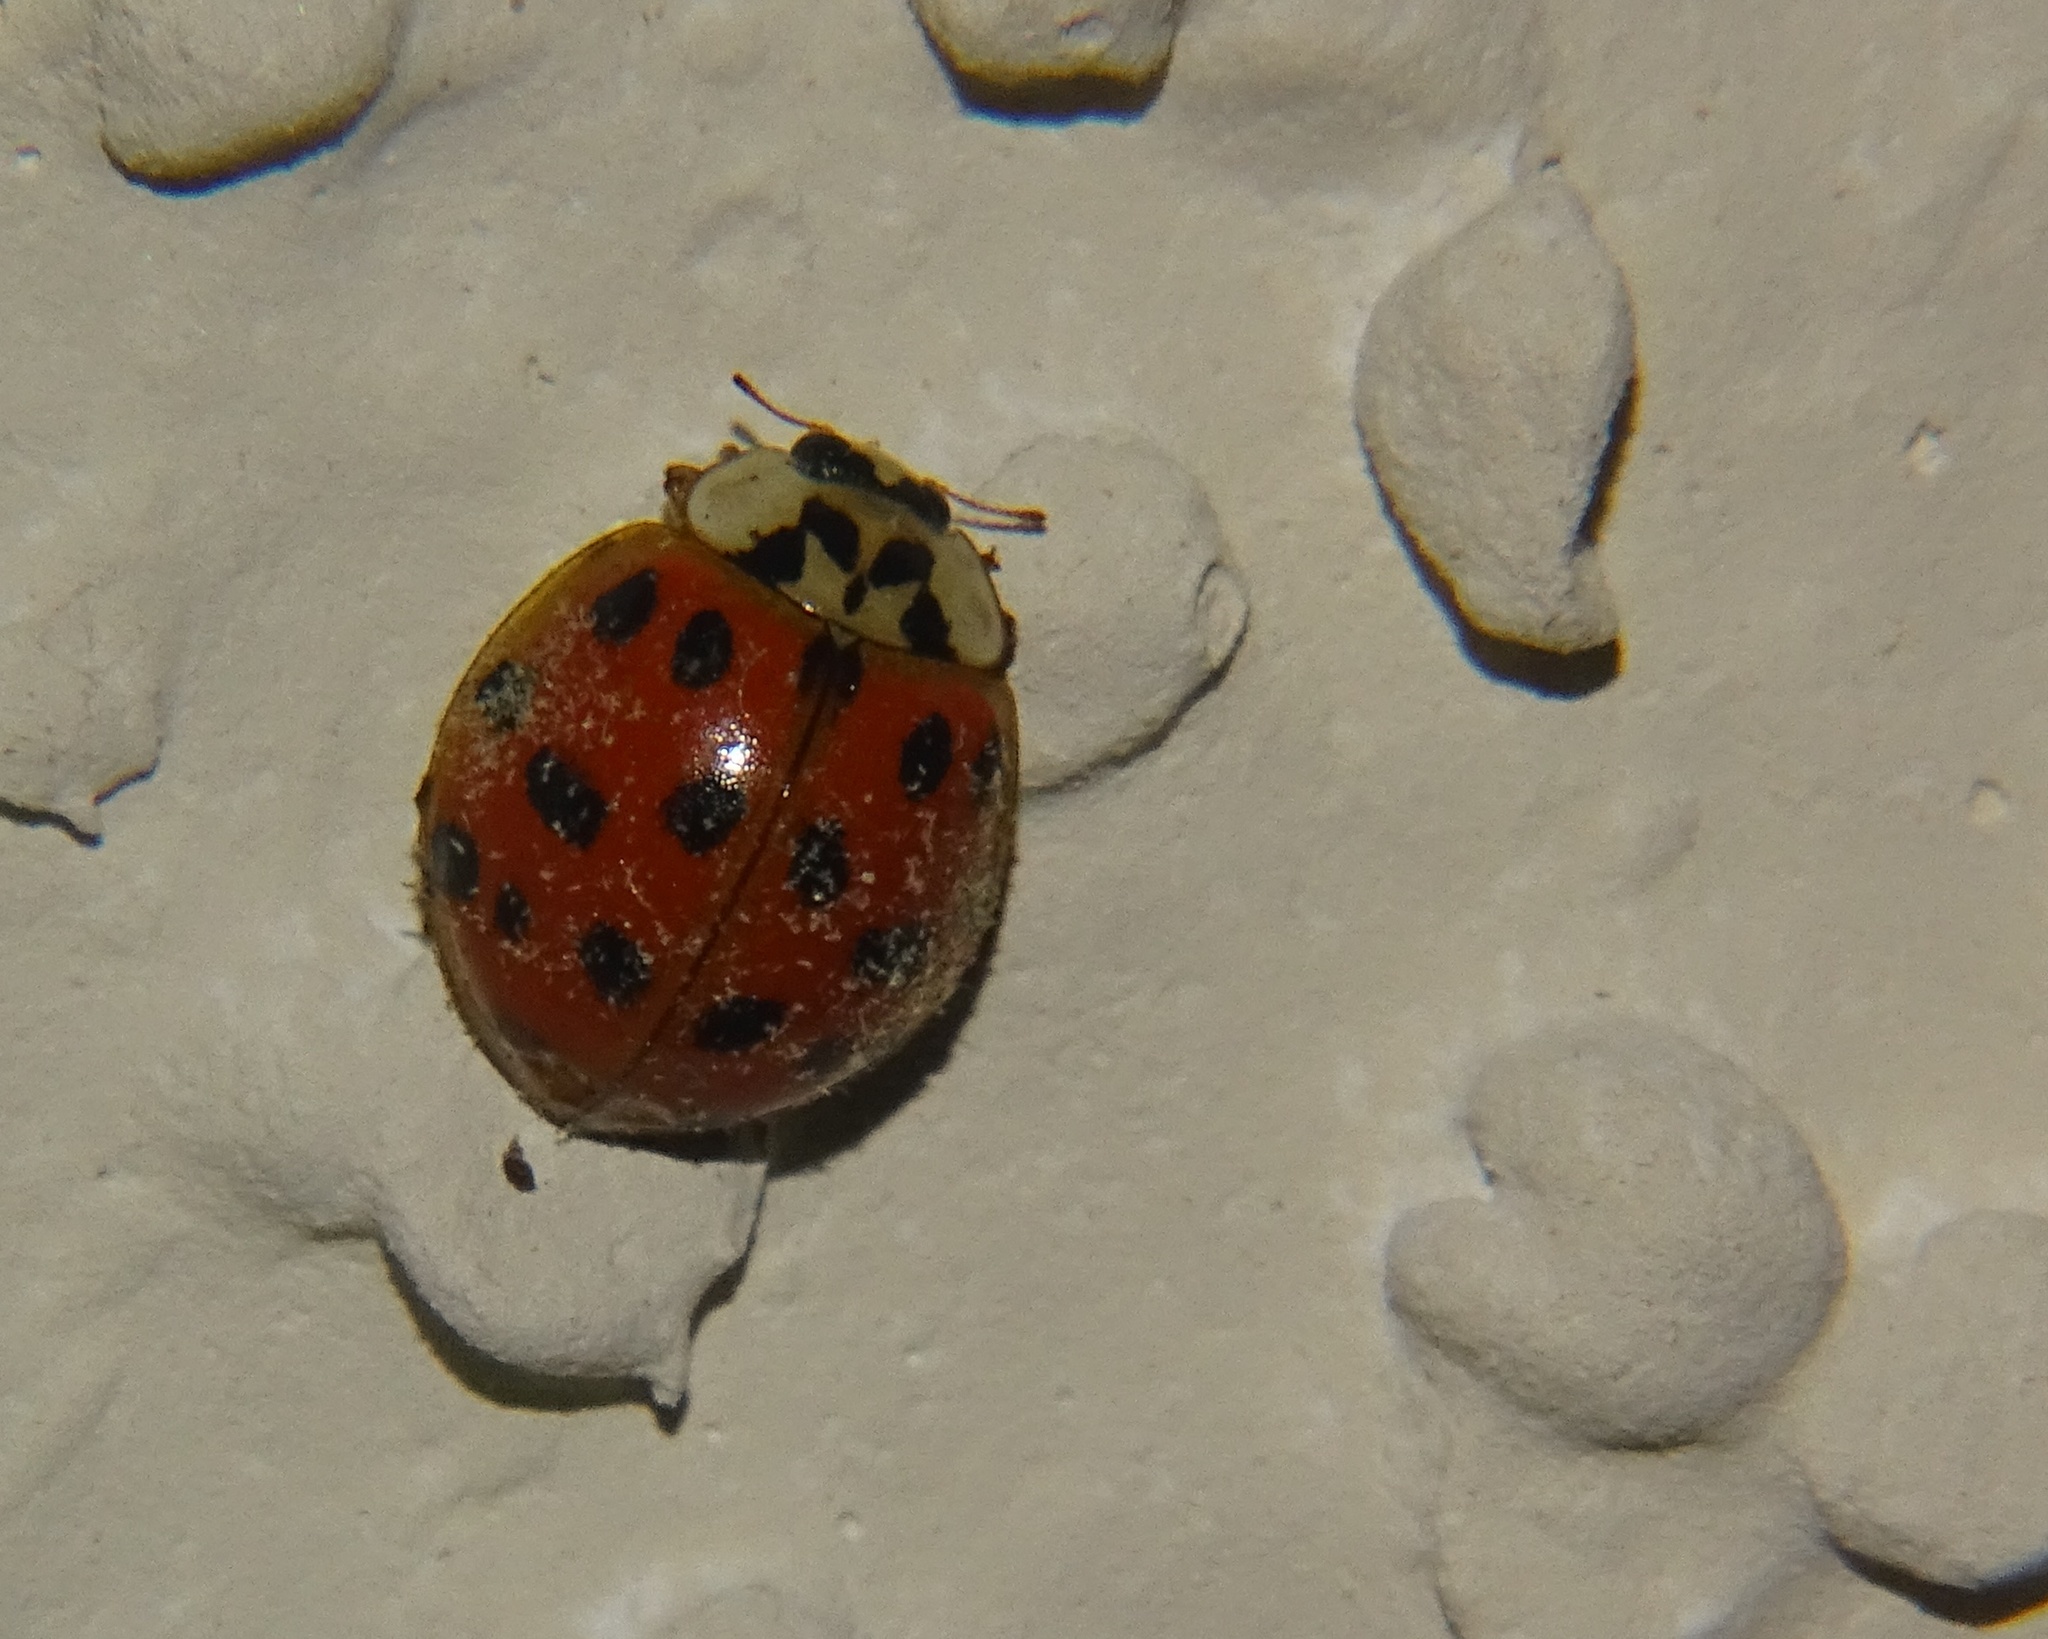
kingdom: Animalia
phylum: Arthropoda
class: Insecta
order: Coleoptera
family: Coccinellidae
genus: Harmonia
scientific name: Harmonia axyridis
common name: Harlequin ladybird
